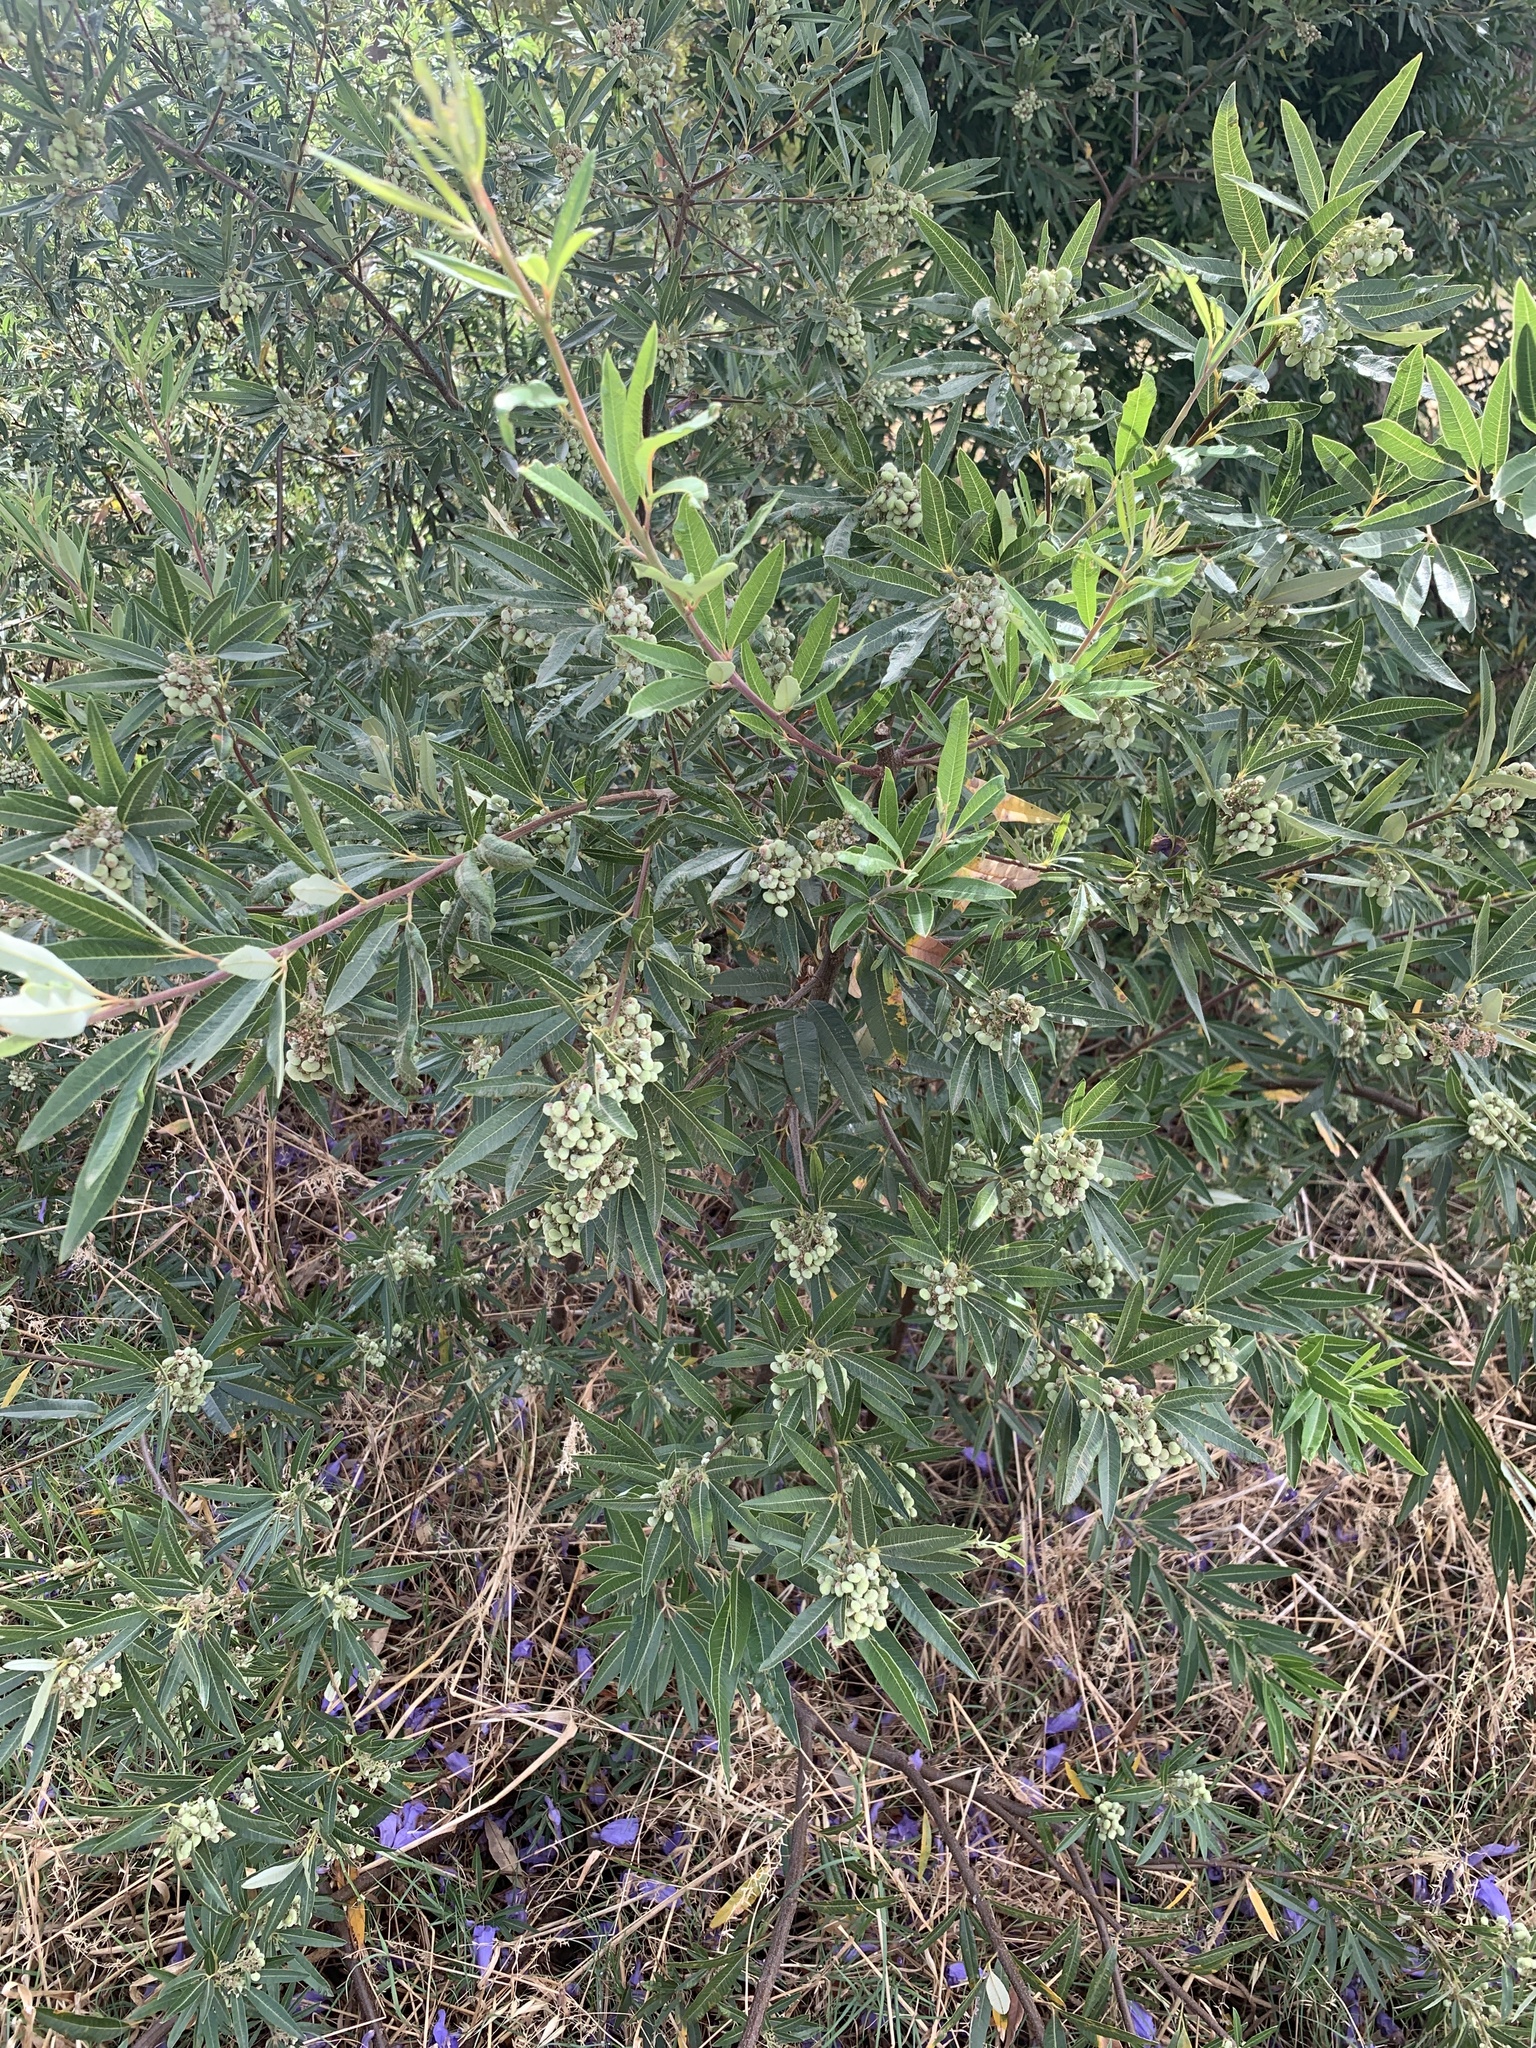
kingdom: Plantae
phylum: Tracheophyta
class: Magnoliopsida
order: Sapindales
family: Anacardiaceae
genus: Searsia
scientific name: Searsia angustifolia
